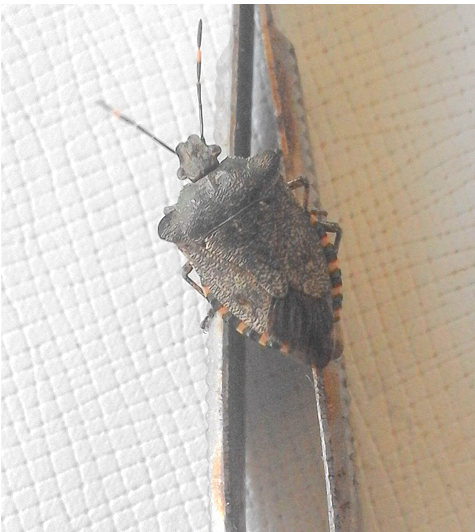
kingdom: Animalia
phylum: Arthropoda
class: Insecta
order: Hemiptera
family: Pentatomidae
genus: Troilus
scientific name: Troilus luridus
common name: Bronze shieldbug
